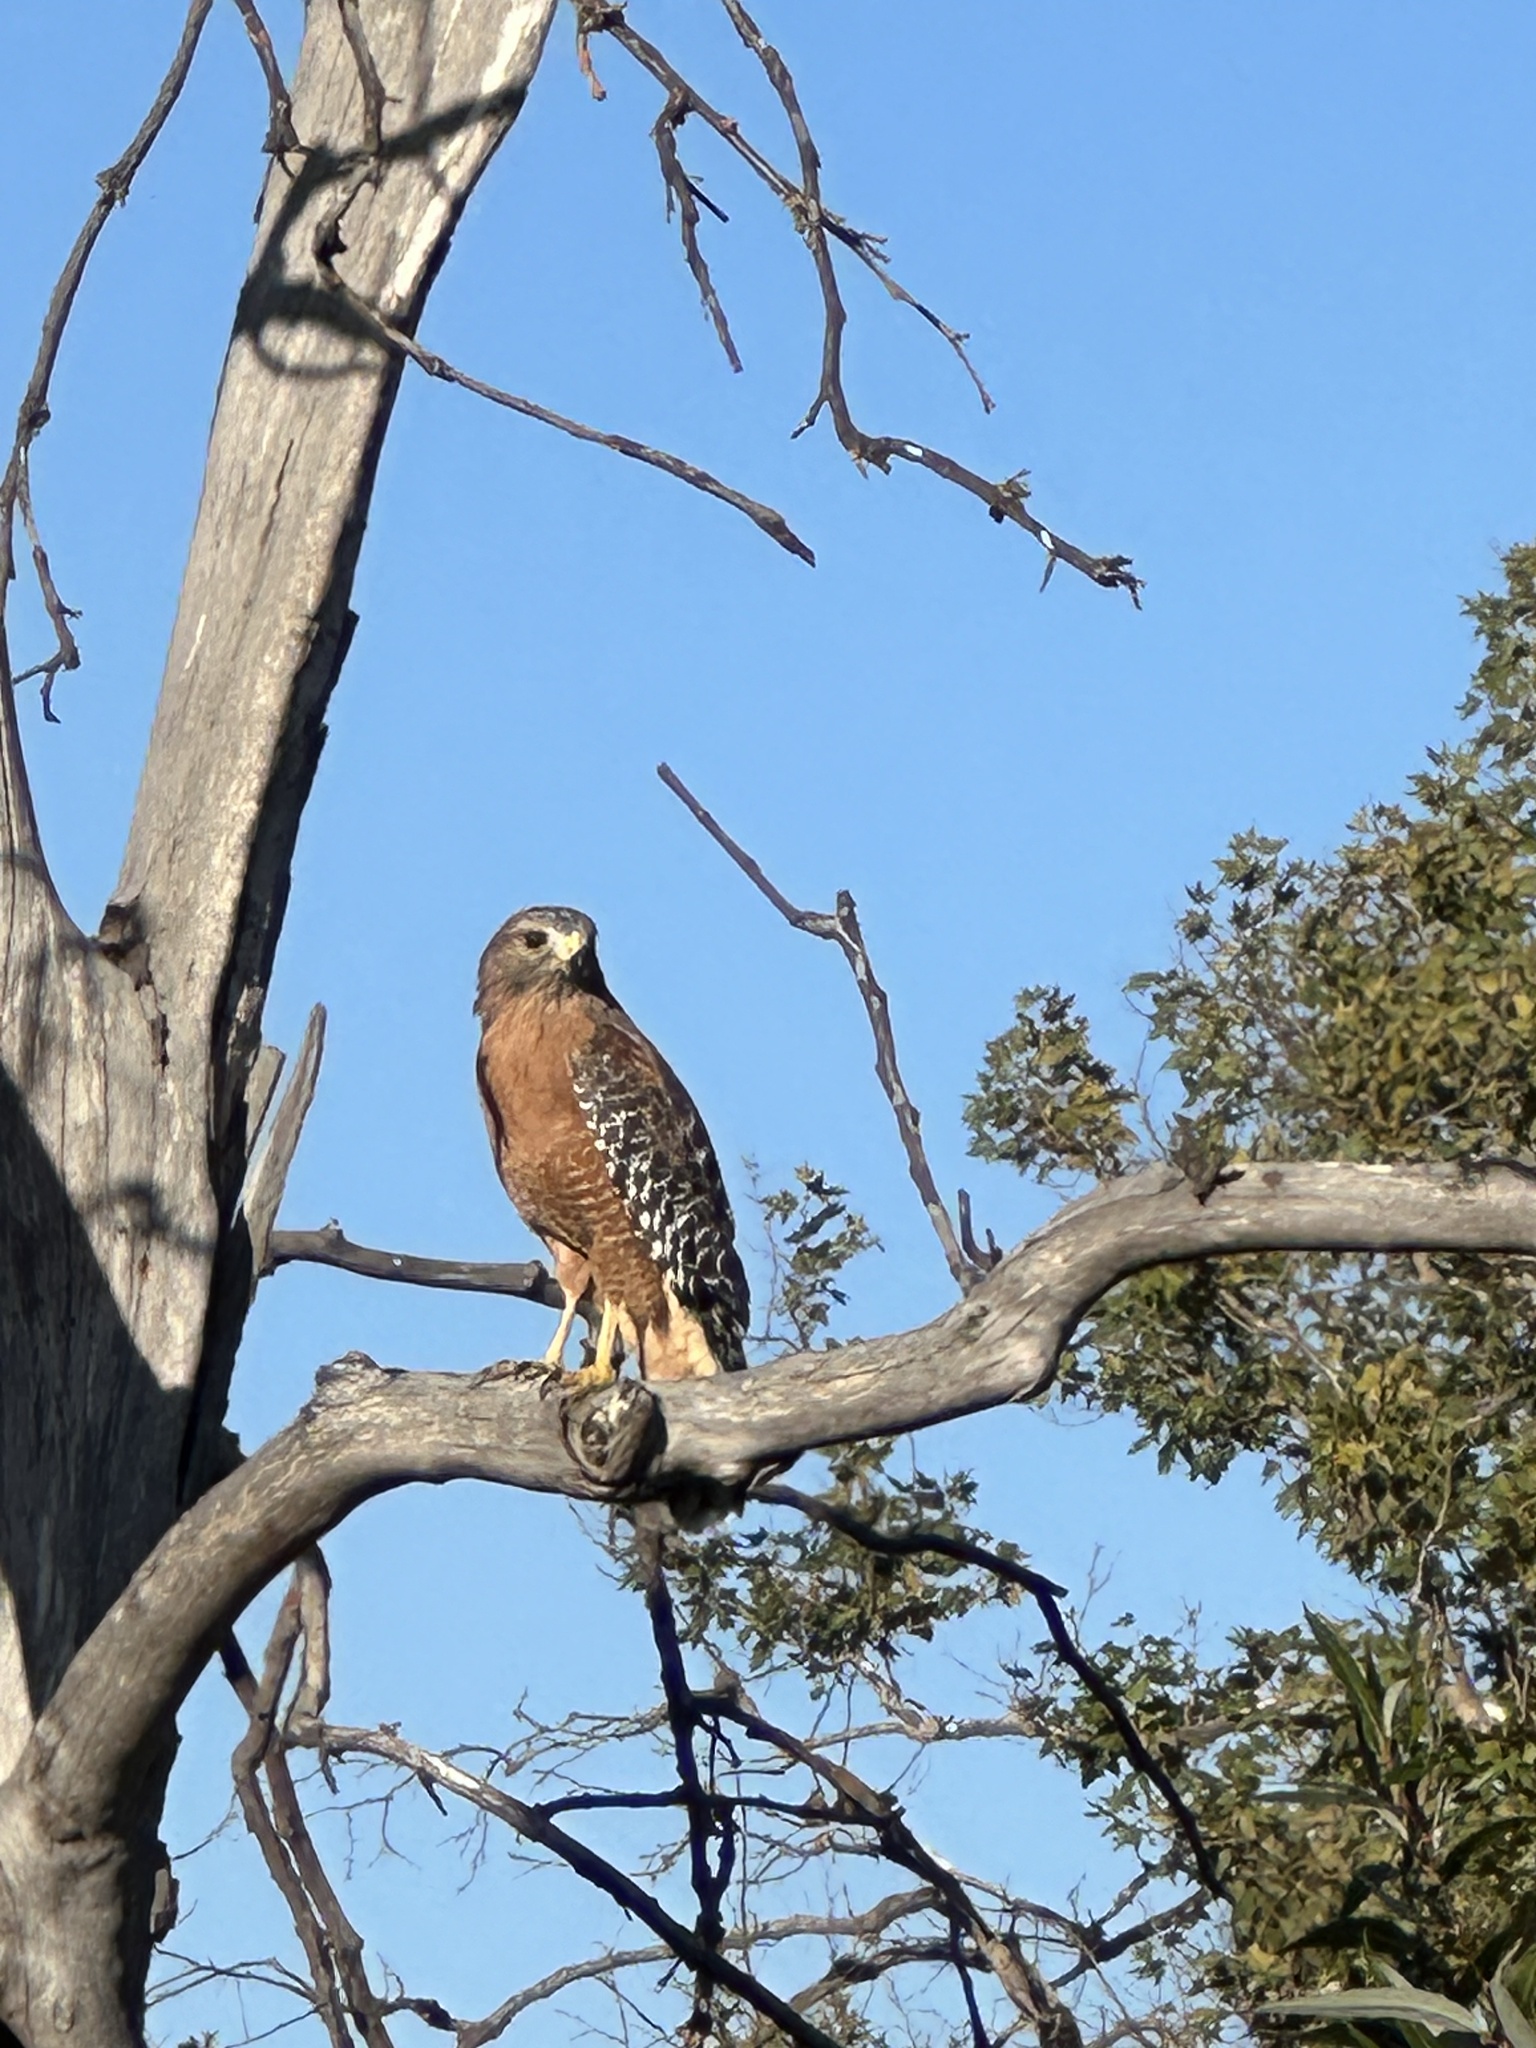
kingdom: Animalia
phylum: Chordata
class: Aves
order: Accipitriformes
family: Accipitridae
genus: Buteo
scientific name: Buteo lineatus
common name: Red-shouldered hawk
